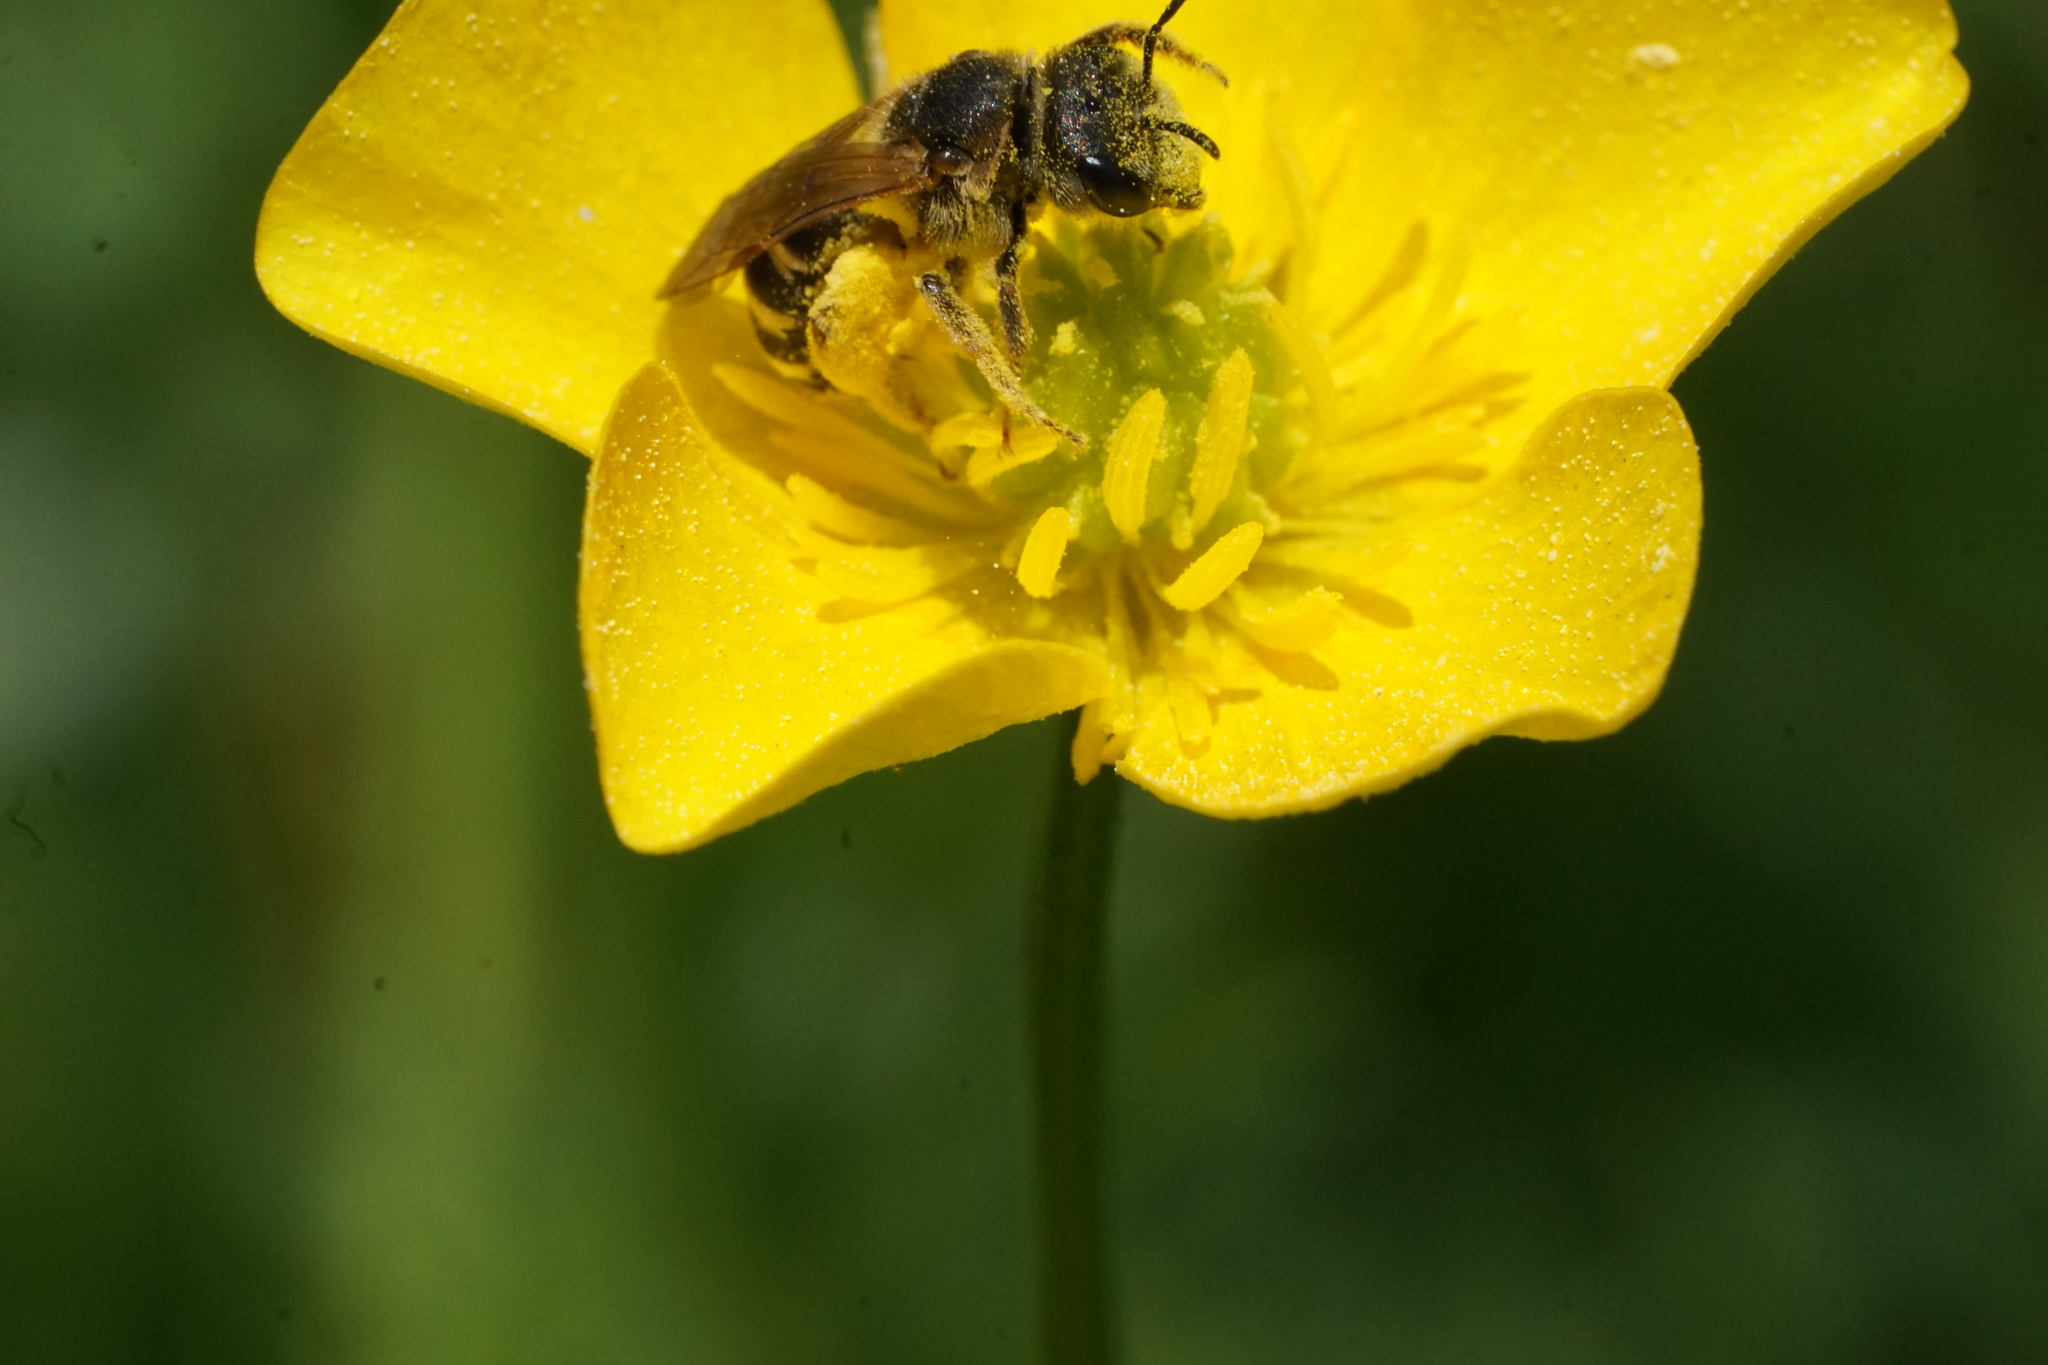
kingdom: Animalia
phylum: Arthropoda
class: Insecta
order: Hymenoptera
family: Halictidae
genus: Halictus
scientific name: Halictus ligatus
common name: Ligated furrow bee
